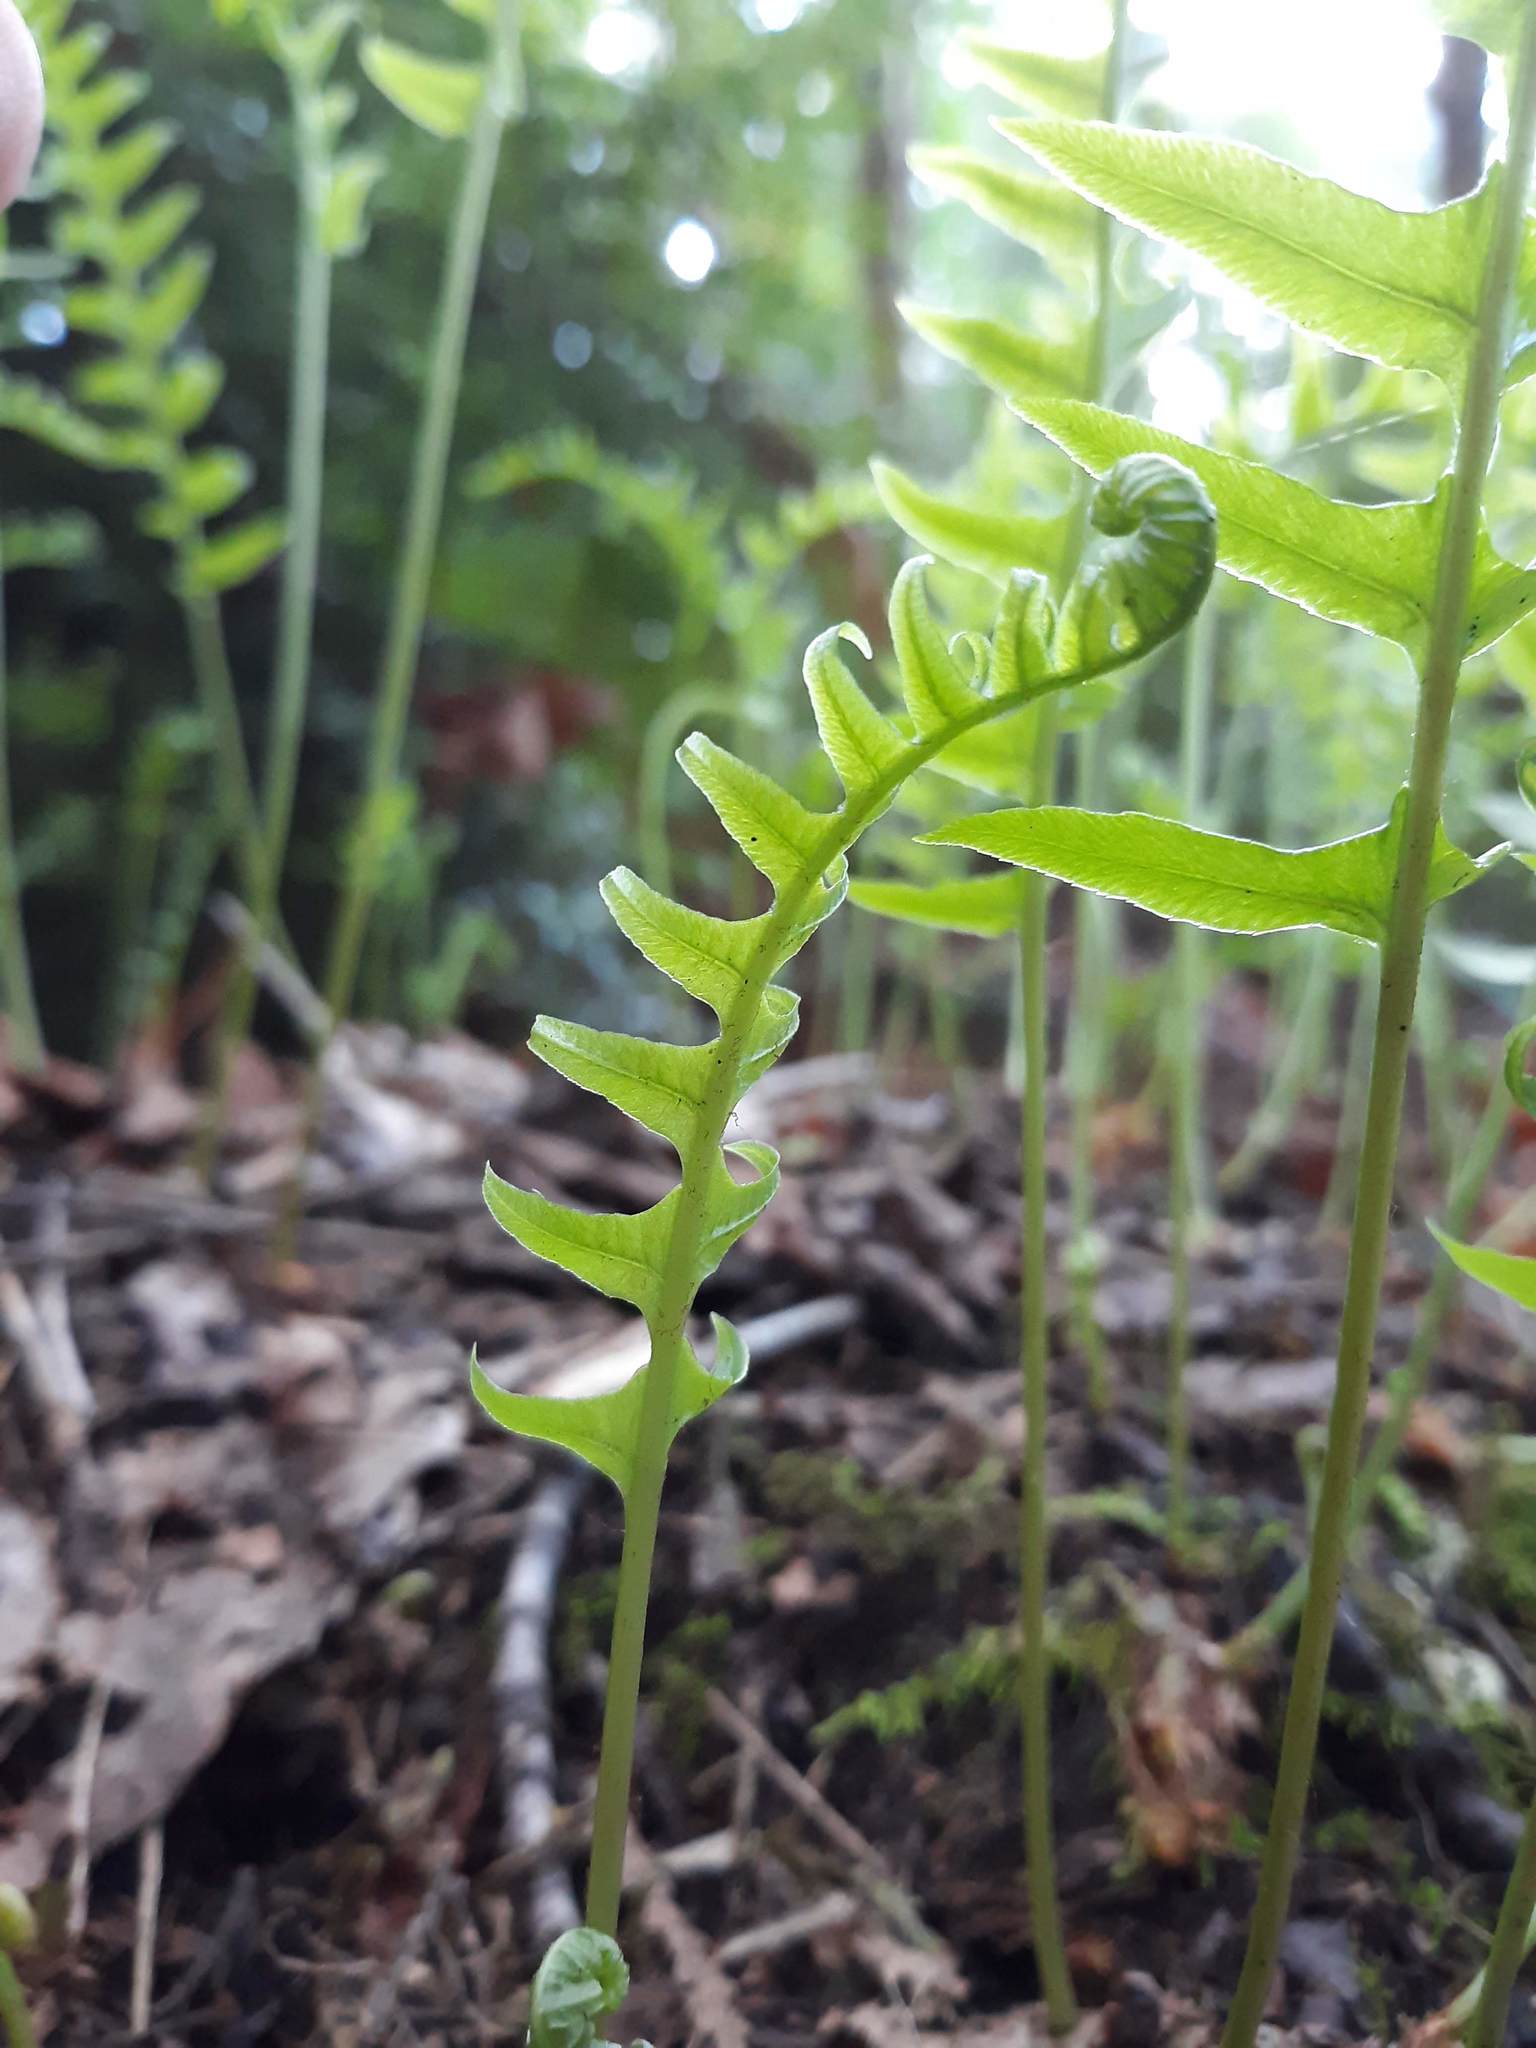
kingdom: Plantae
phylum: Tracheophyta
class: Polypodiopsida
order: Polypodiales
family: Polypodiaceae
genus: Polypodium
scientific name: Polypodium glycyrrhiza
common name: Licorice fern
